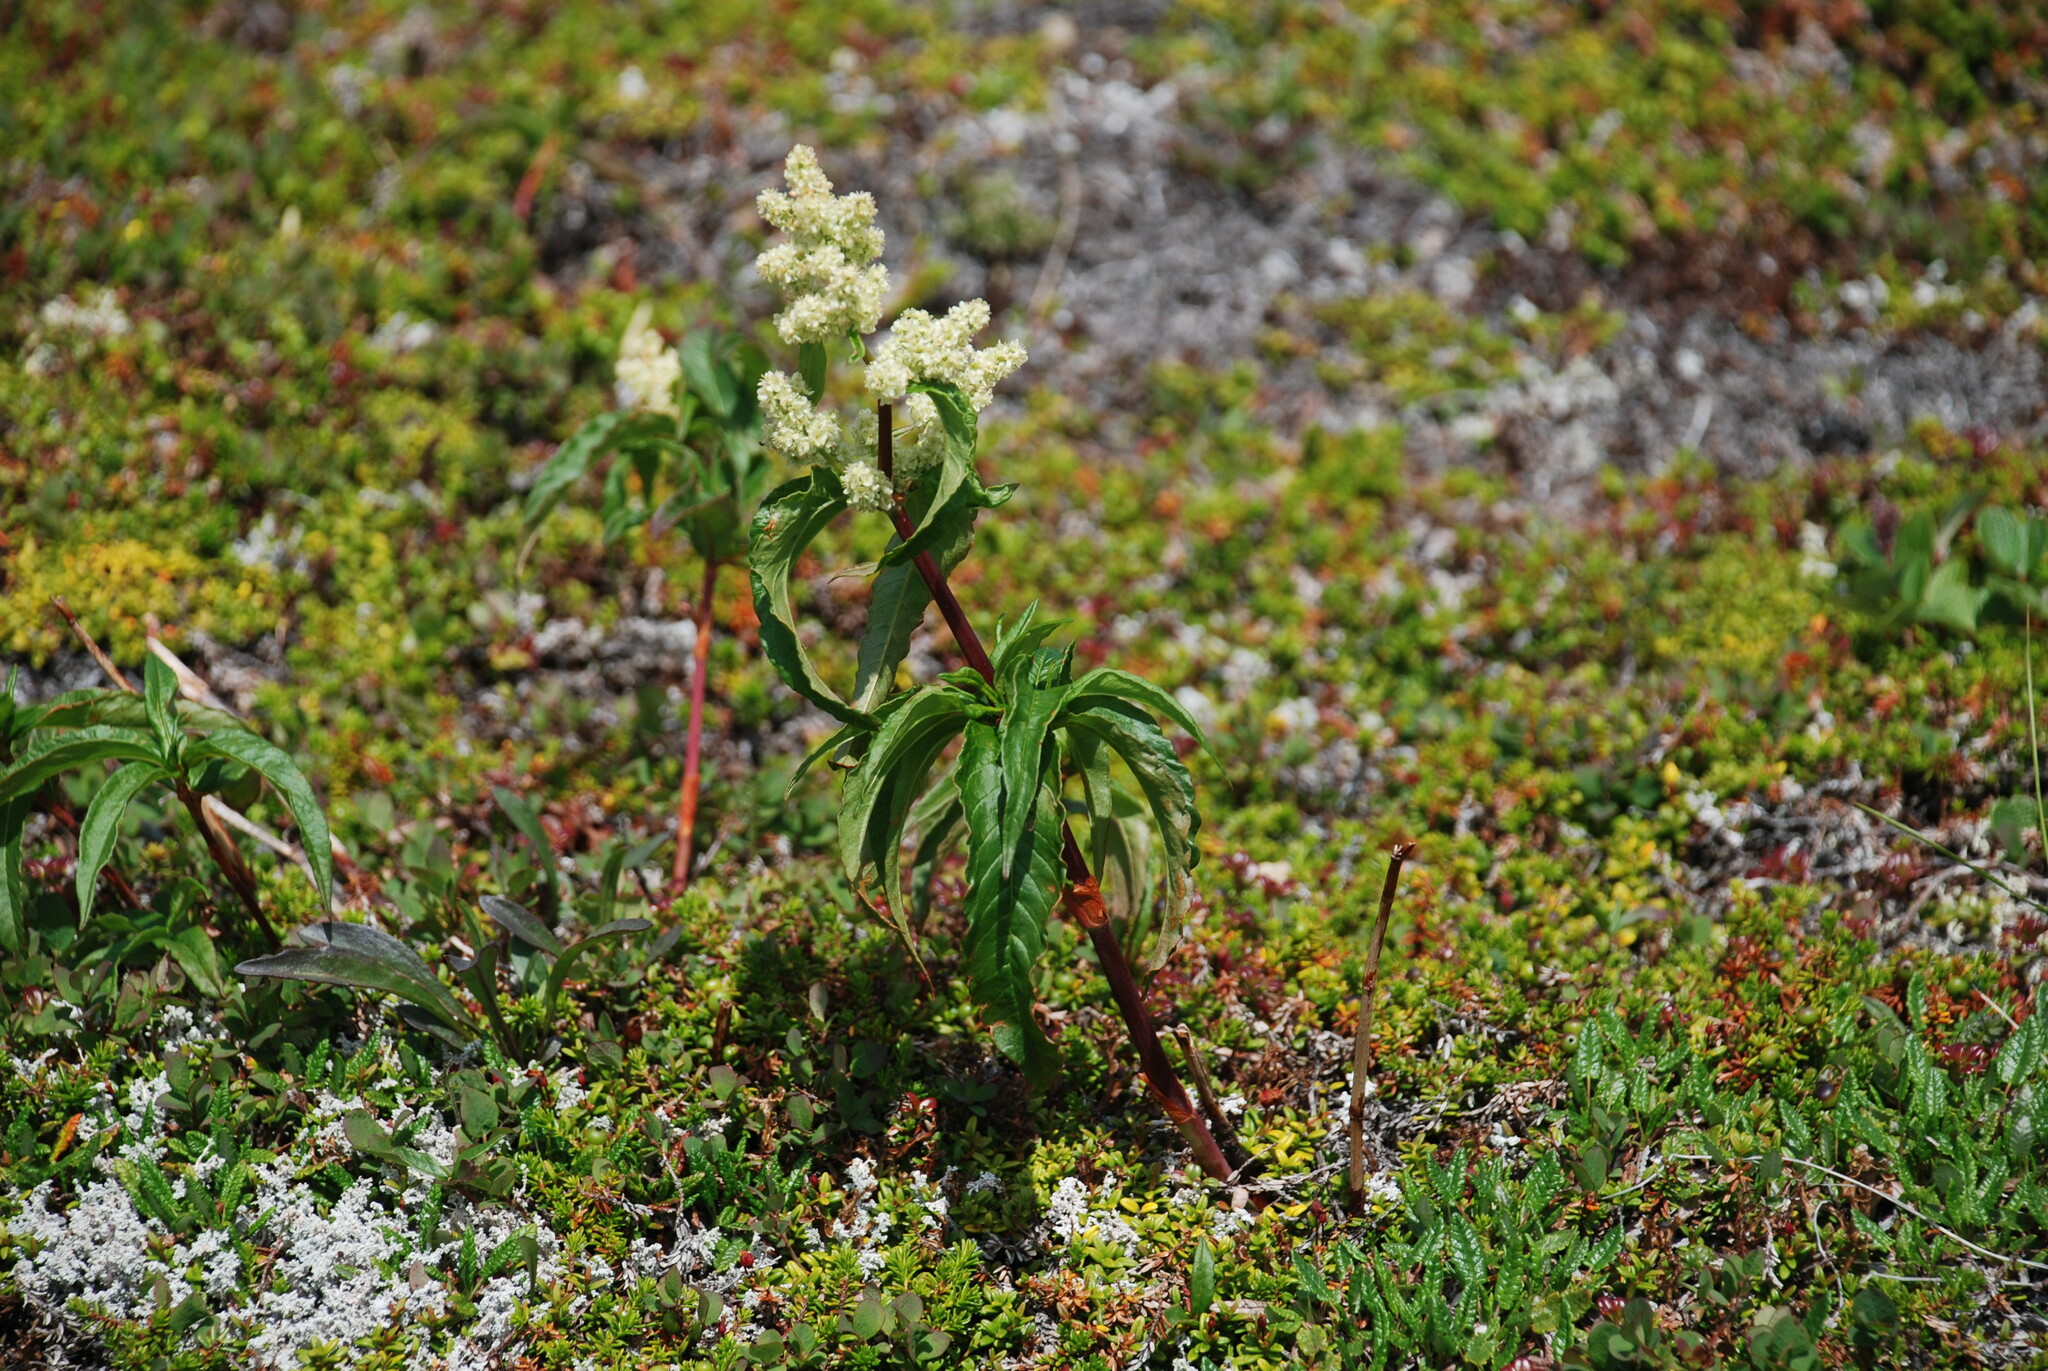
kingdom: Plantae
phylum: Tracheophyta
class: Magnoliopsida
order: Caryophyllales
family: Polygonaceae
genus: Koenigia
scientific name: Koenigia tripterocarpa
